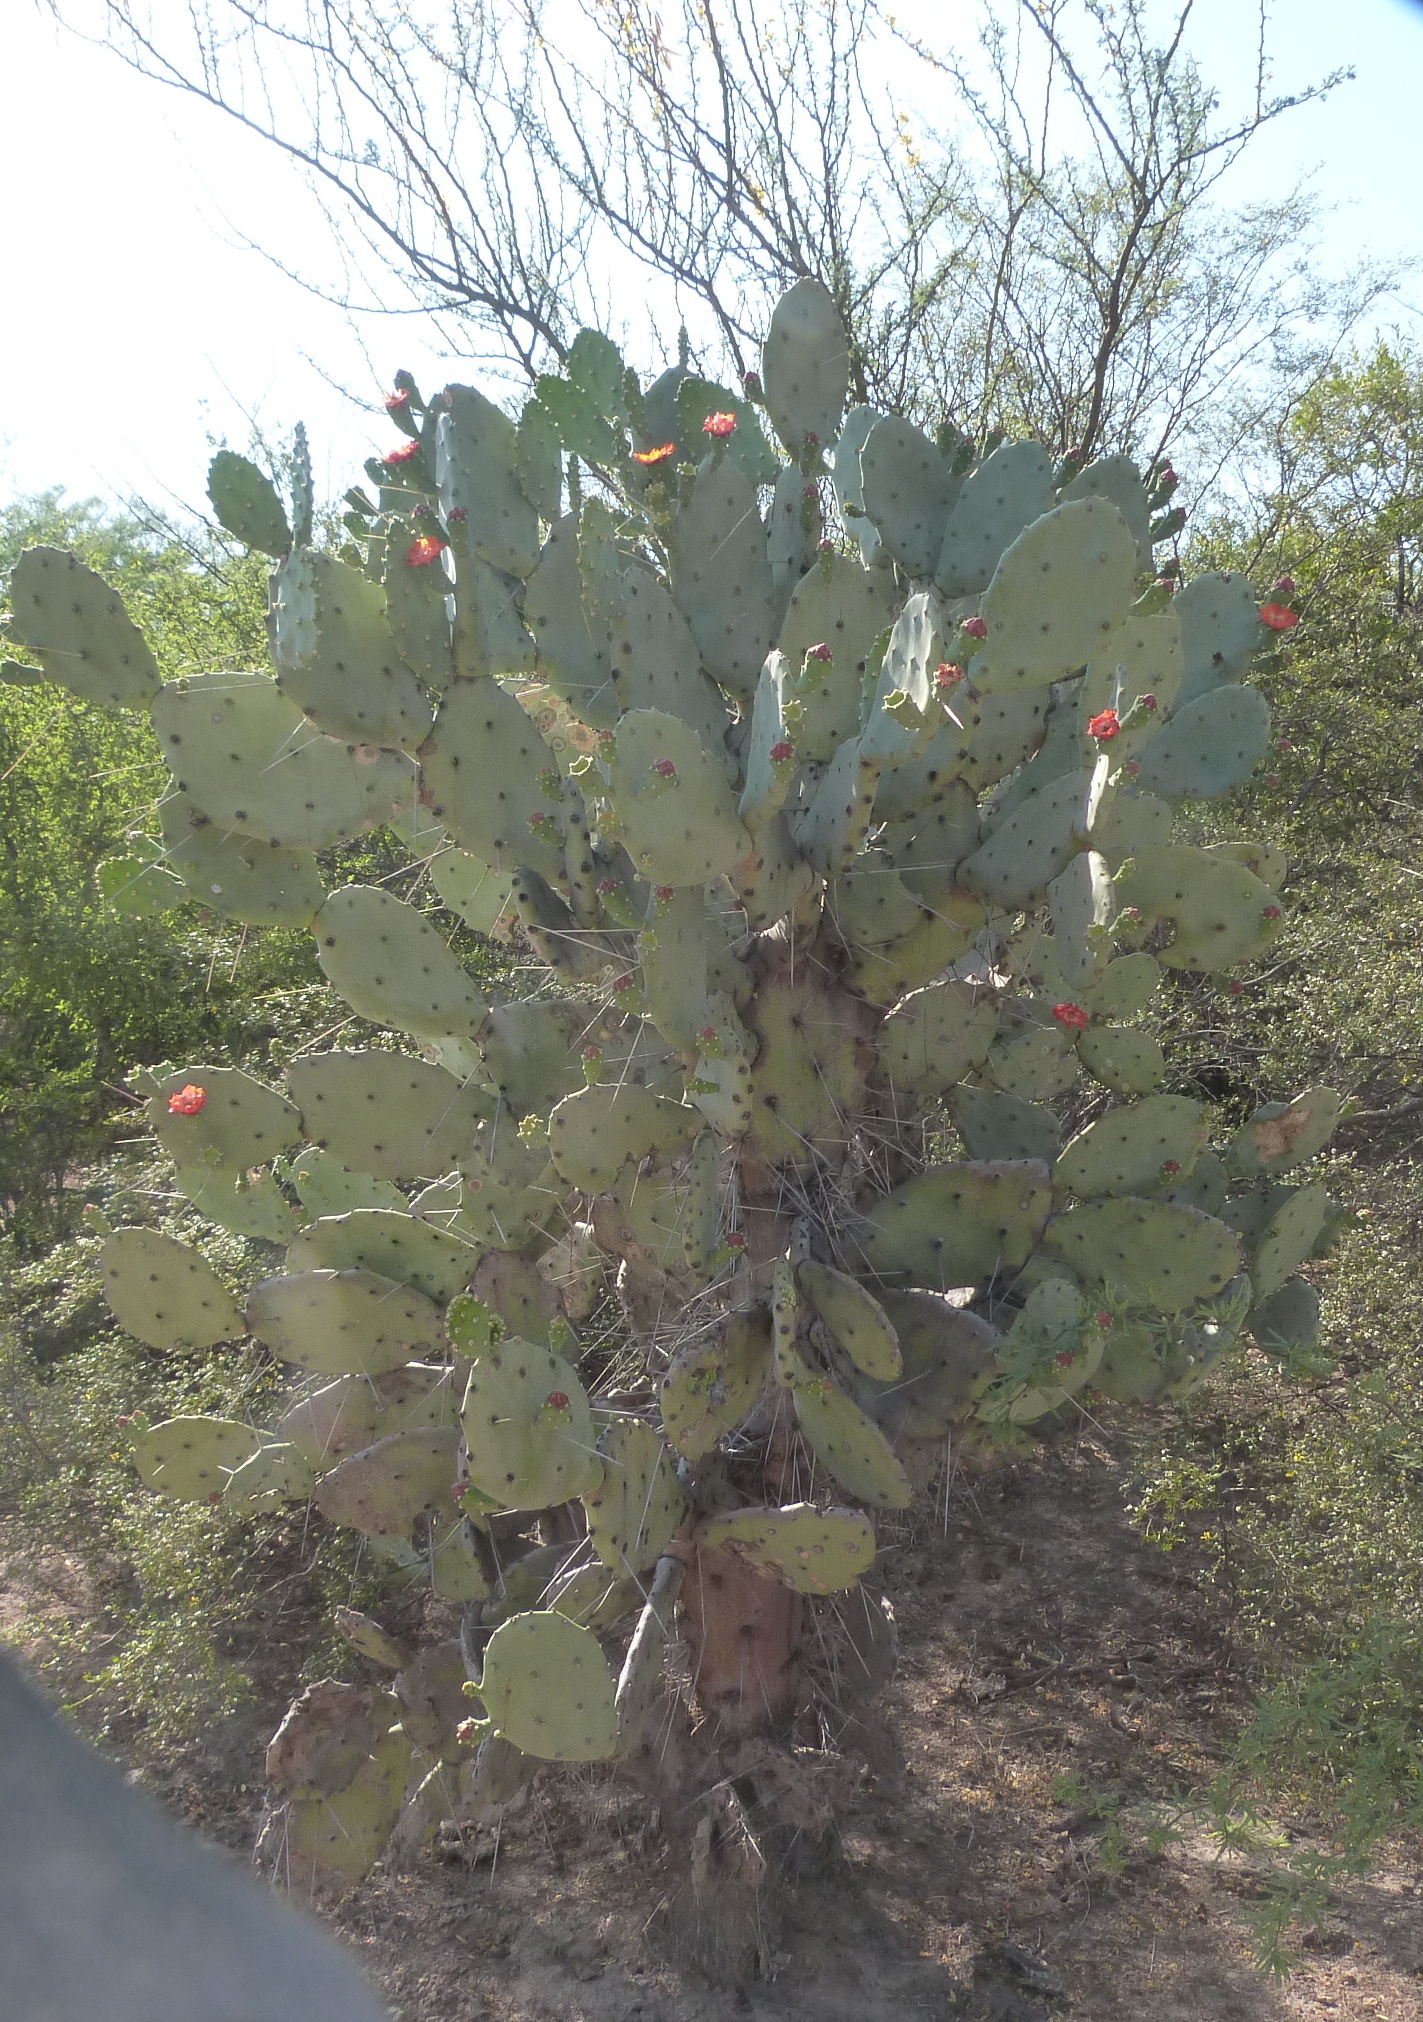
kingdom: Plantae
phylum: Tracheophyta
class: Magnoliopsida
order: Caryophyllales
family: Cactaceae
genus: Opuntia
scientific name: Opuntia quimilo
